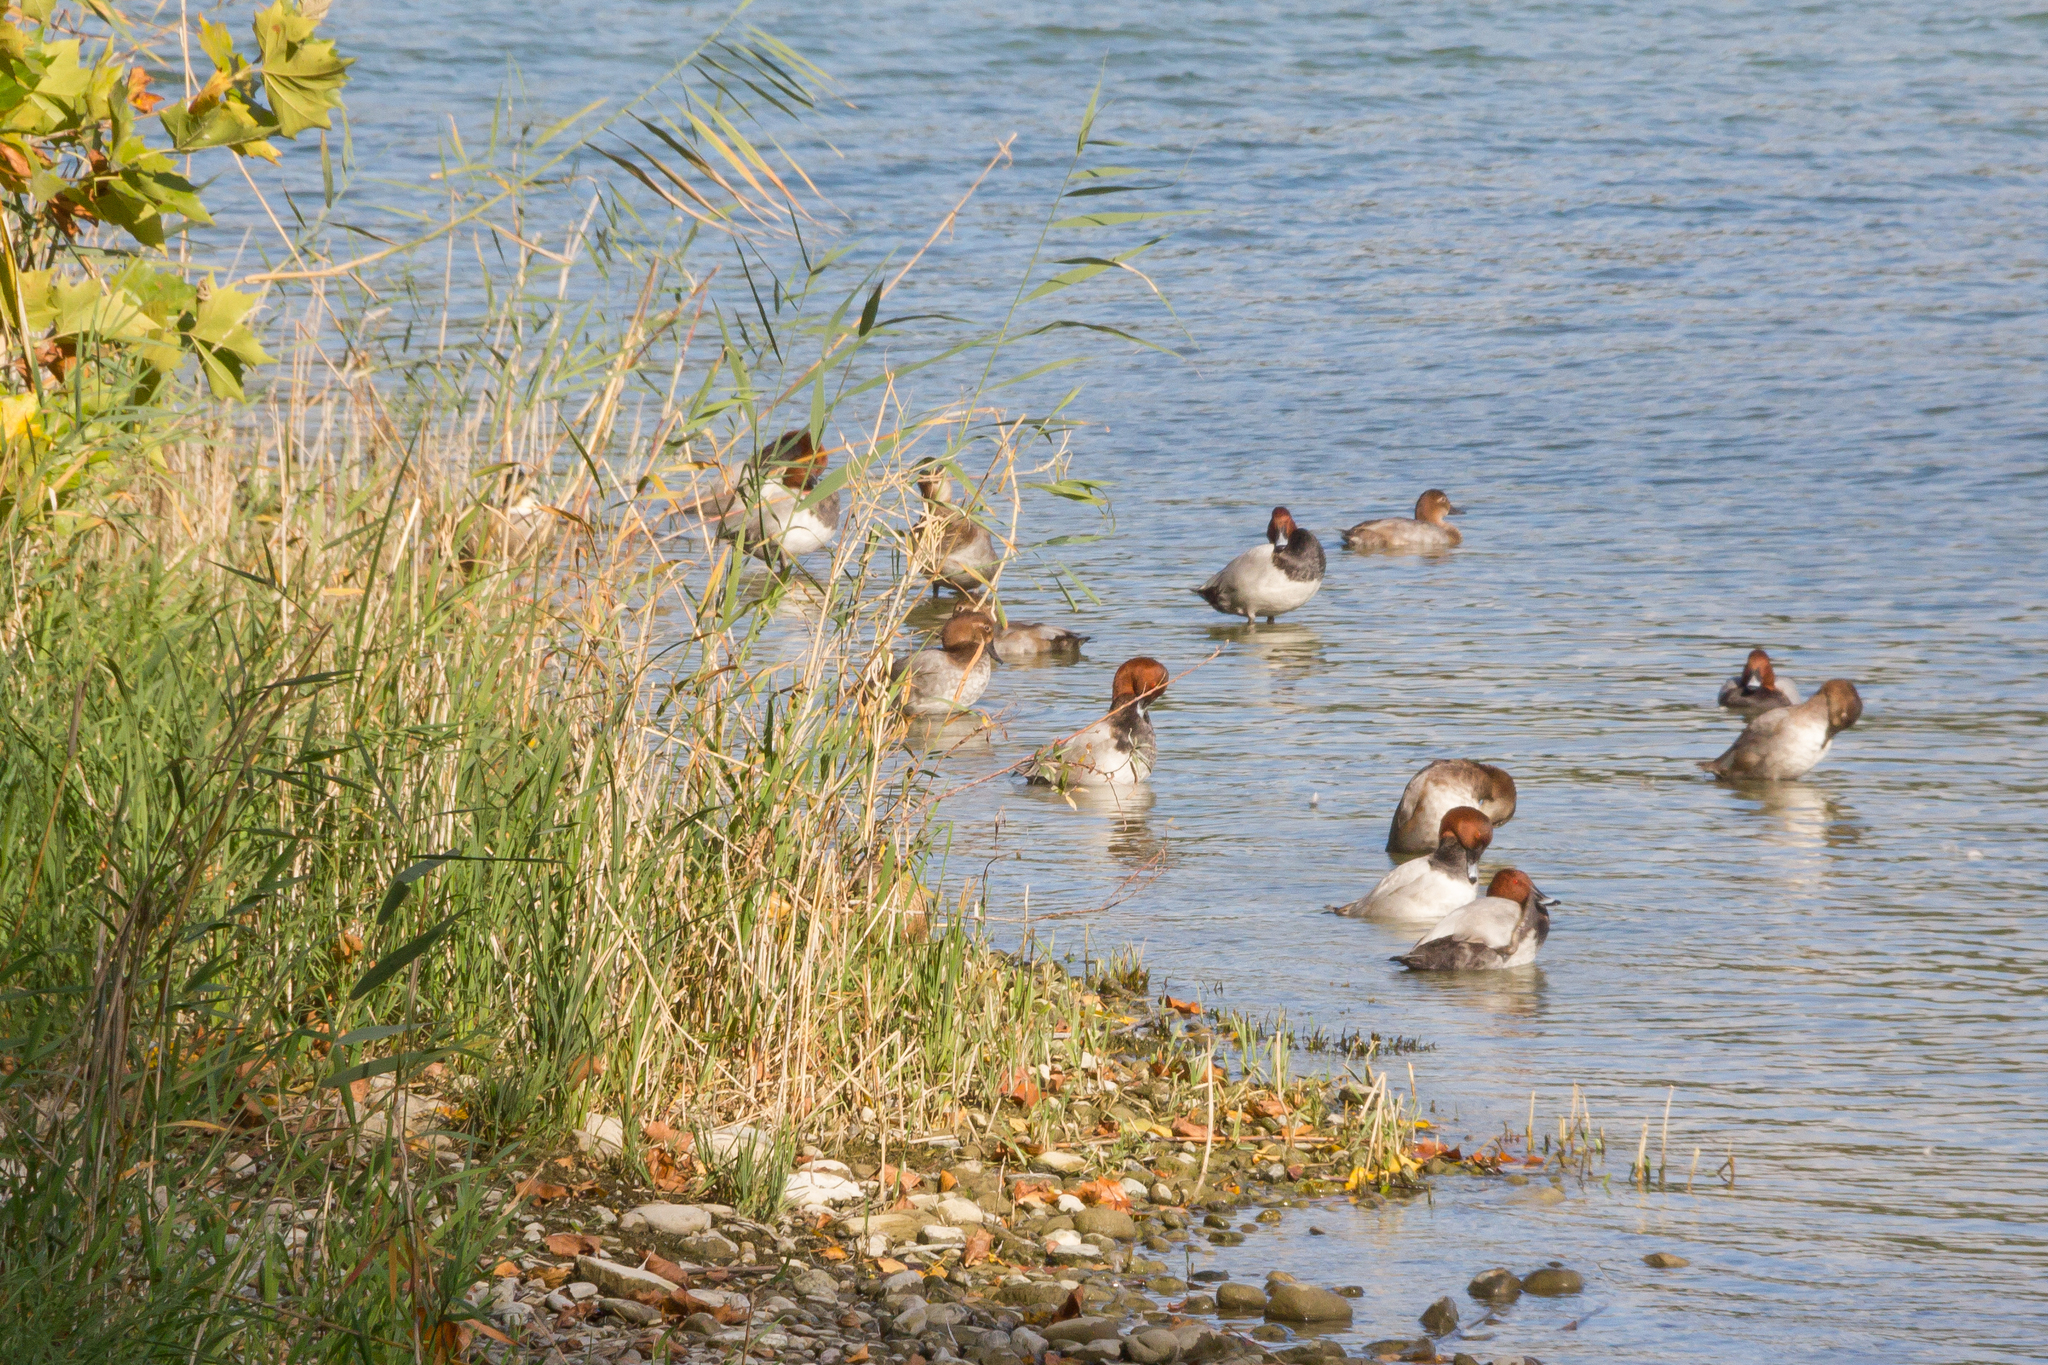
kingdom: Animalia
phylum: Chordata
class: Aves
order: Anseriformes
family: Anatidae
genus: Aythya
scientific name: Aythya ferina
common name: Common pochard
